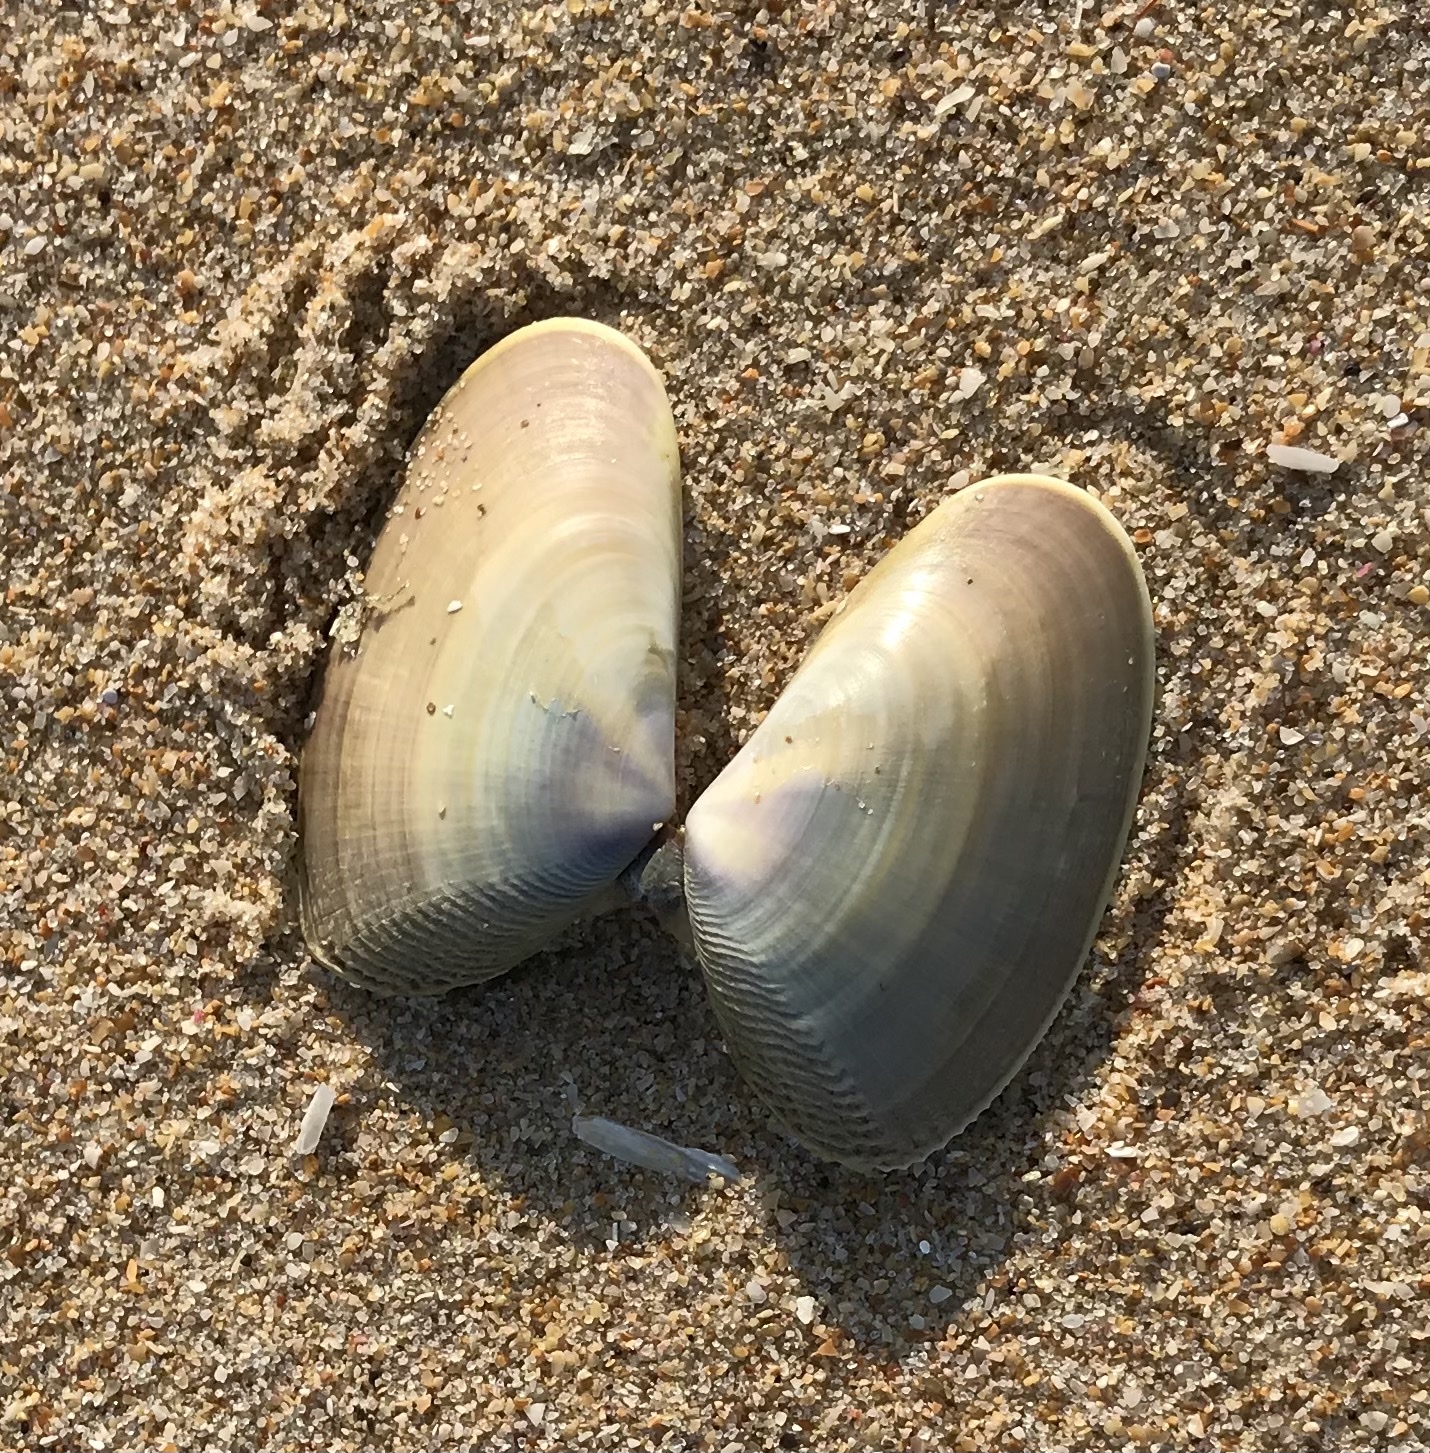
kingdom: Animalia
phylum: Mollusca
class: Bivalvia
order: Cardiida
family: Donacidae
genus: Donax
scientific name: Donax serra
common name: Giant south african wedge clam
